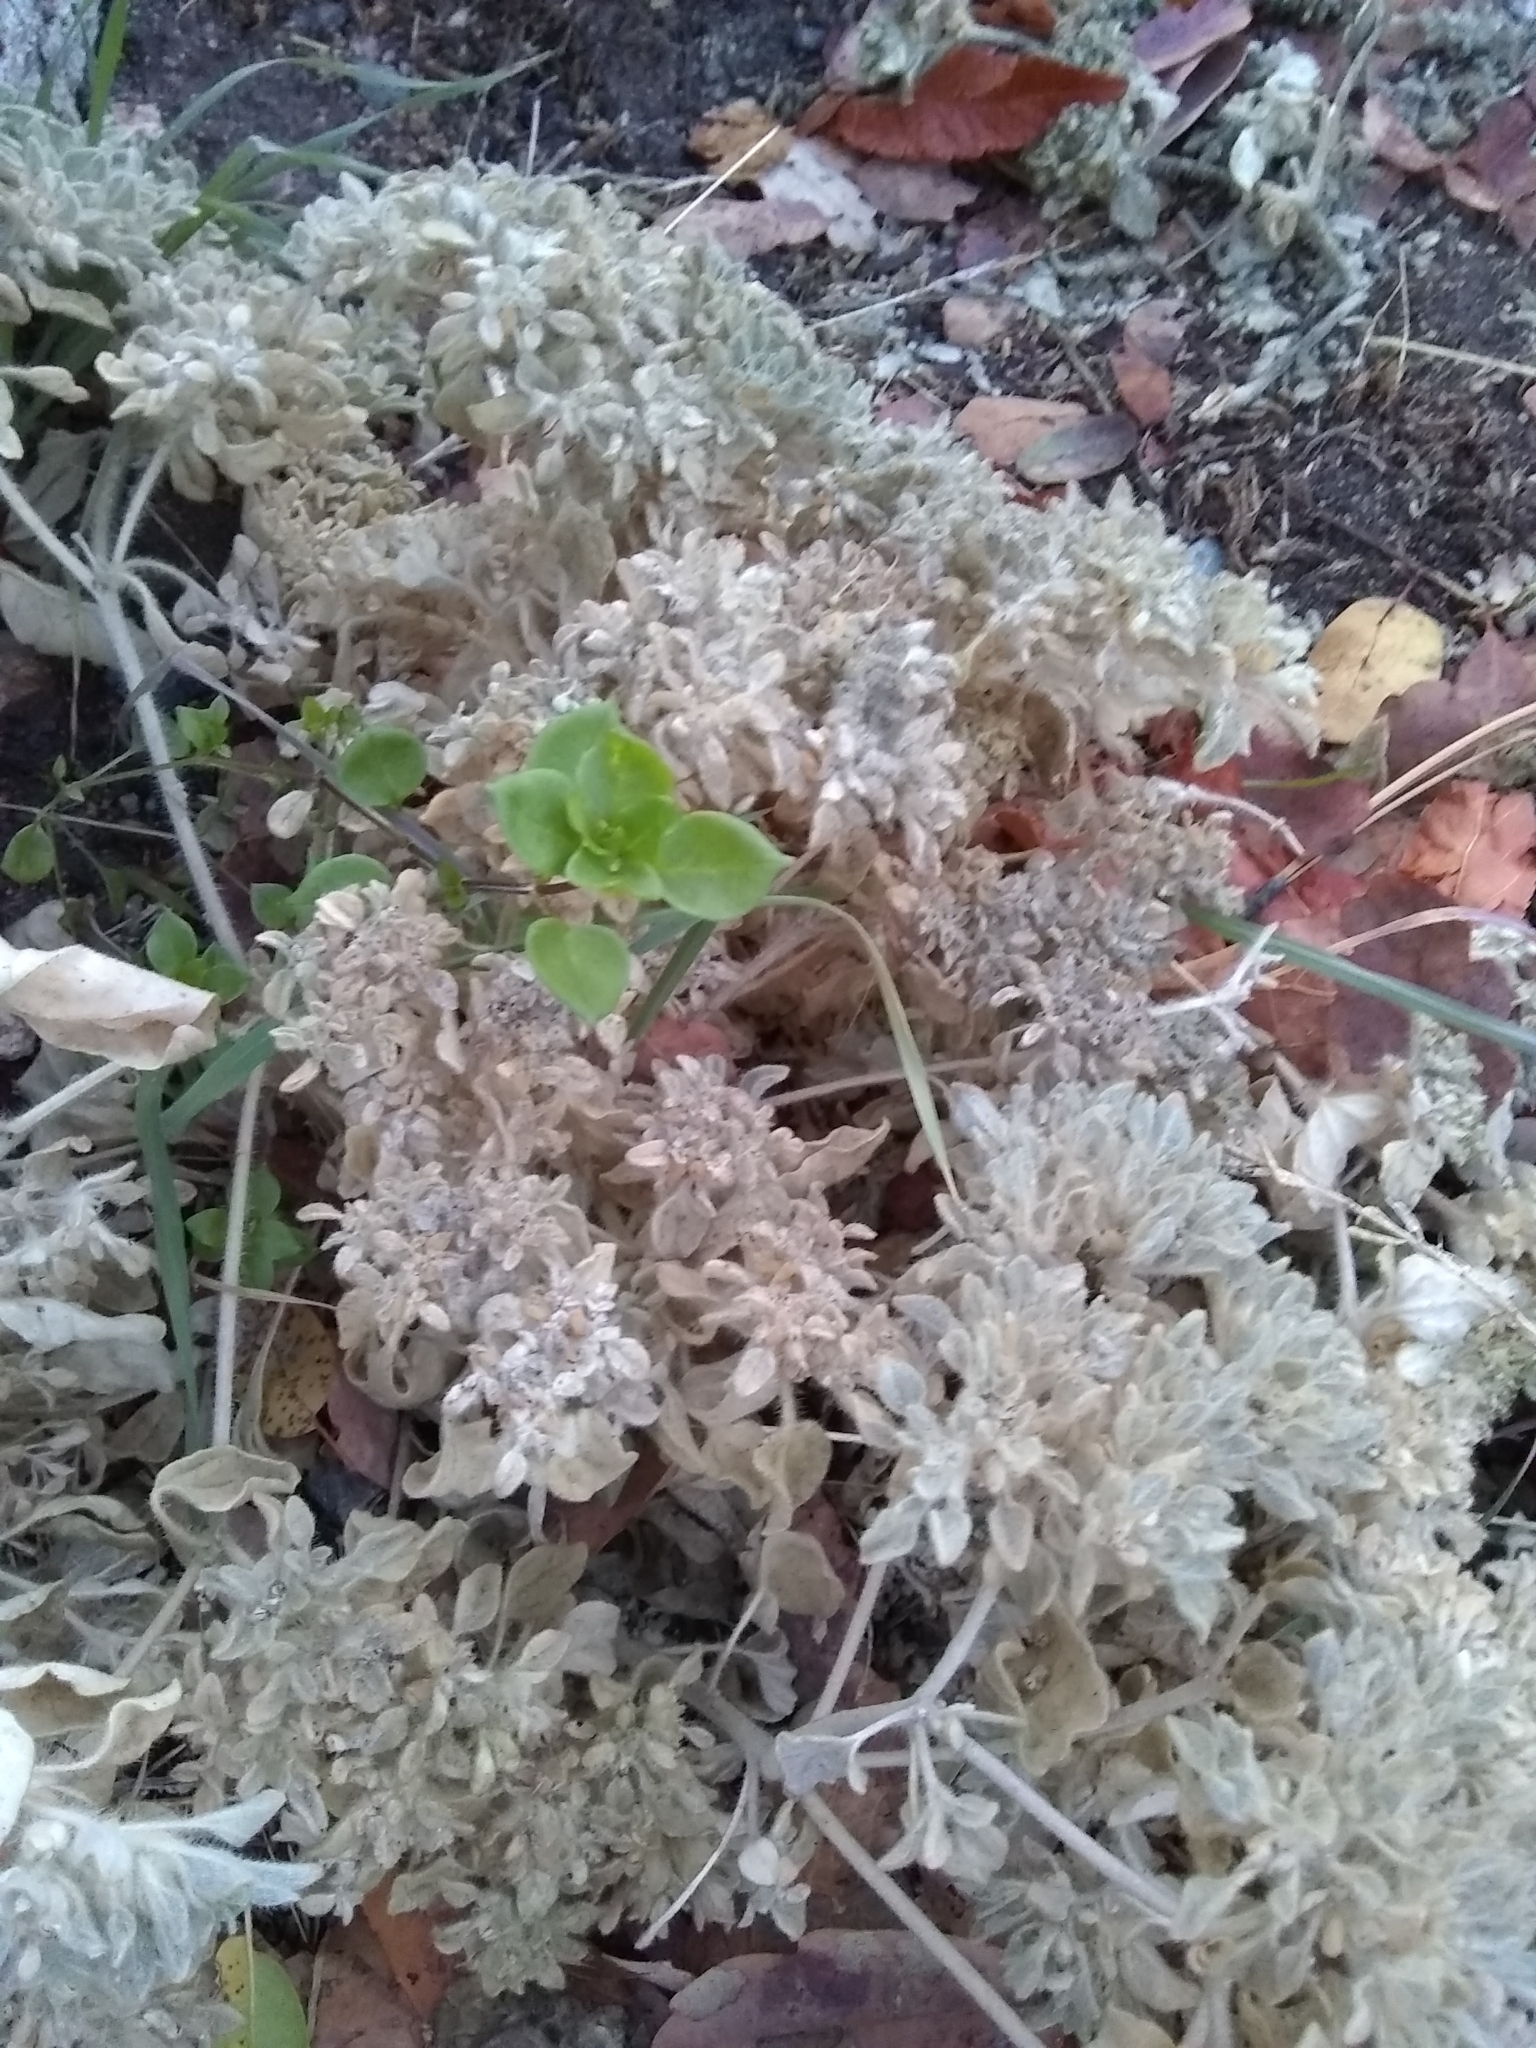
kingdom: Plantae
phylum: Tracheophyta
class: Magnoliopsida
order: Malpighiales
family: Euphorbiaceae
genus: Croton
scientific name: Croton setiger
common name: Dove weed
